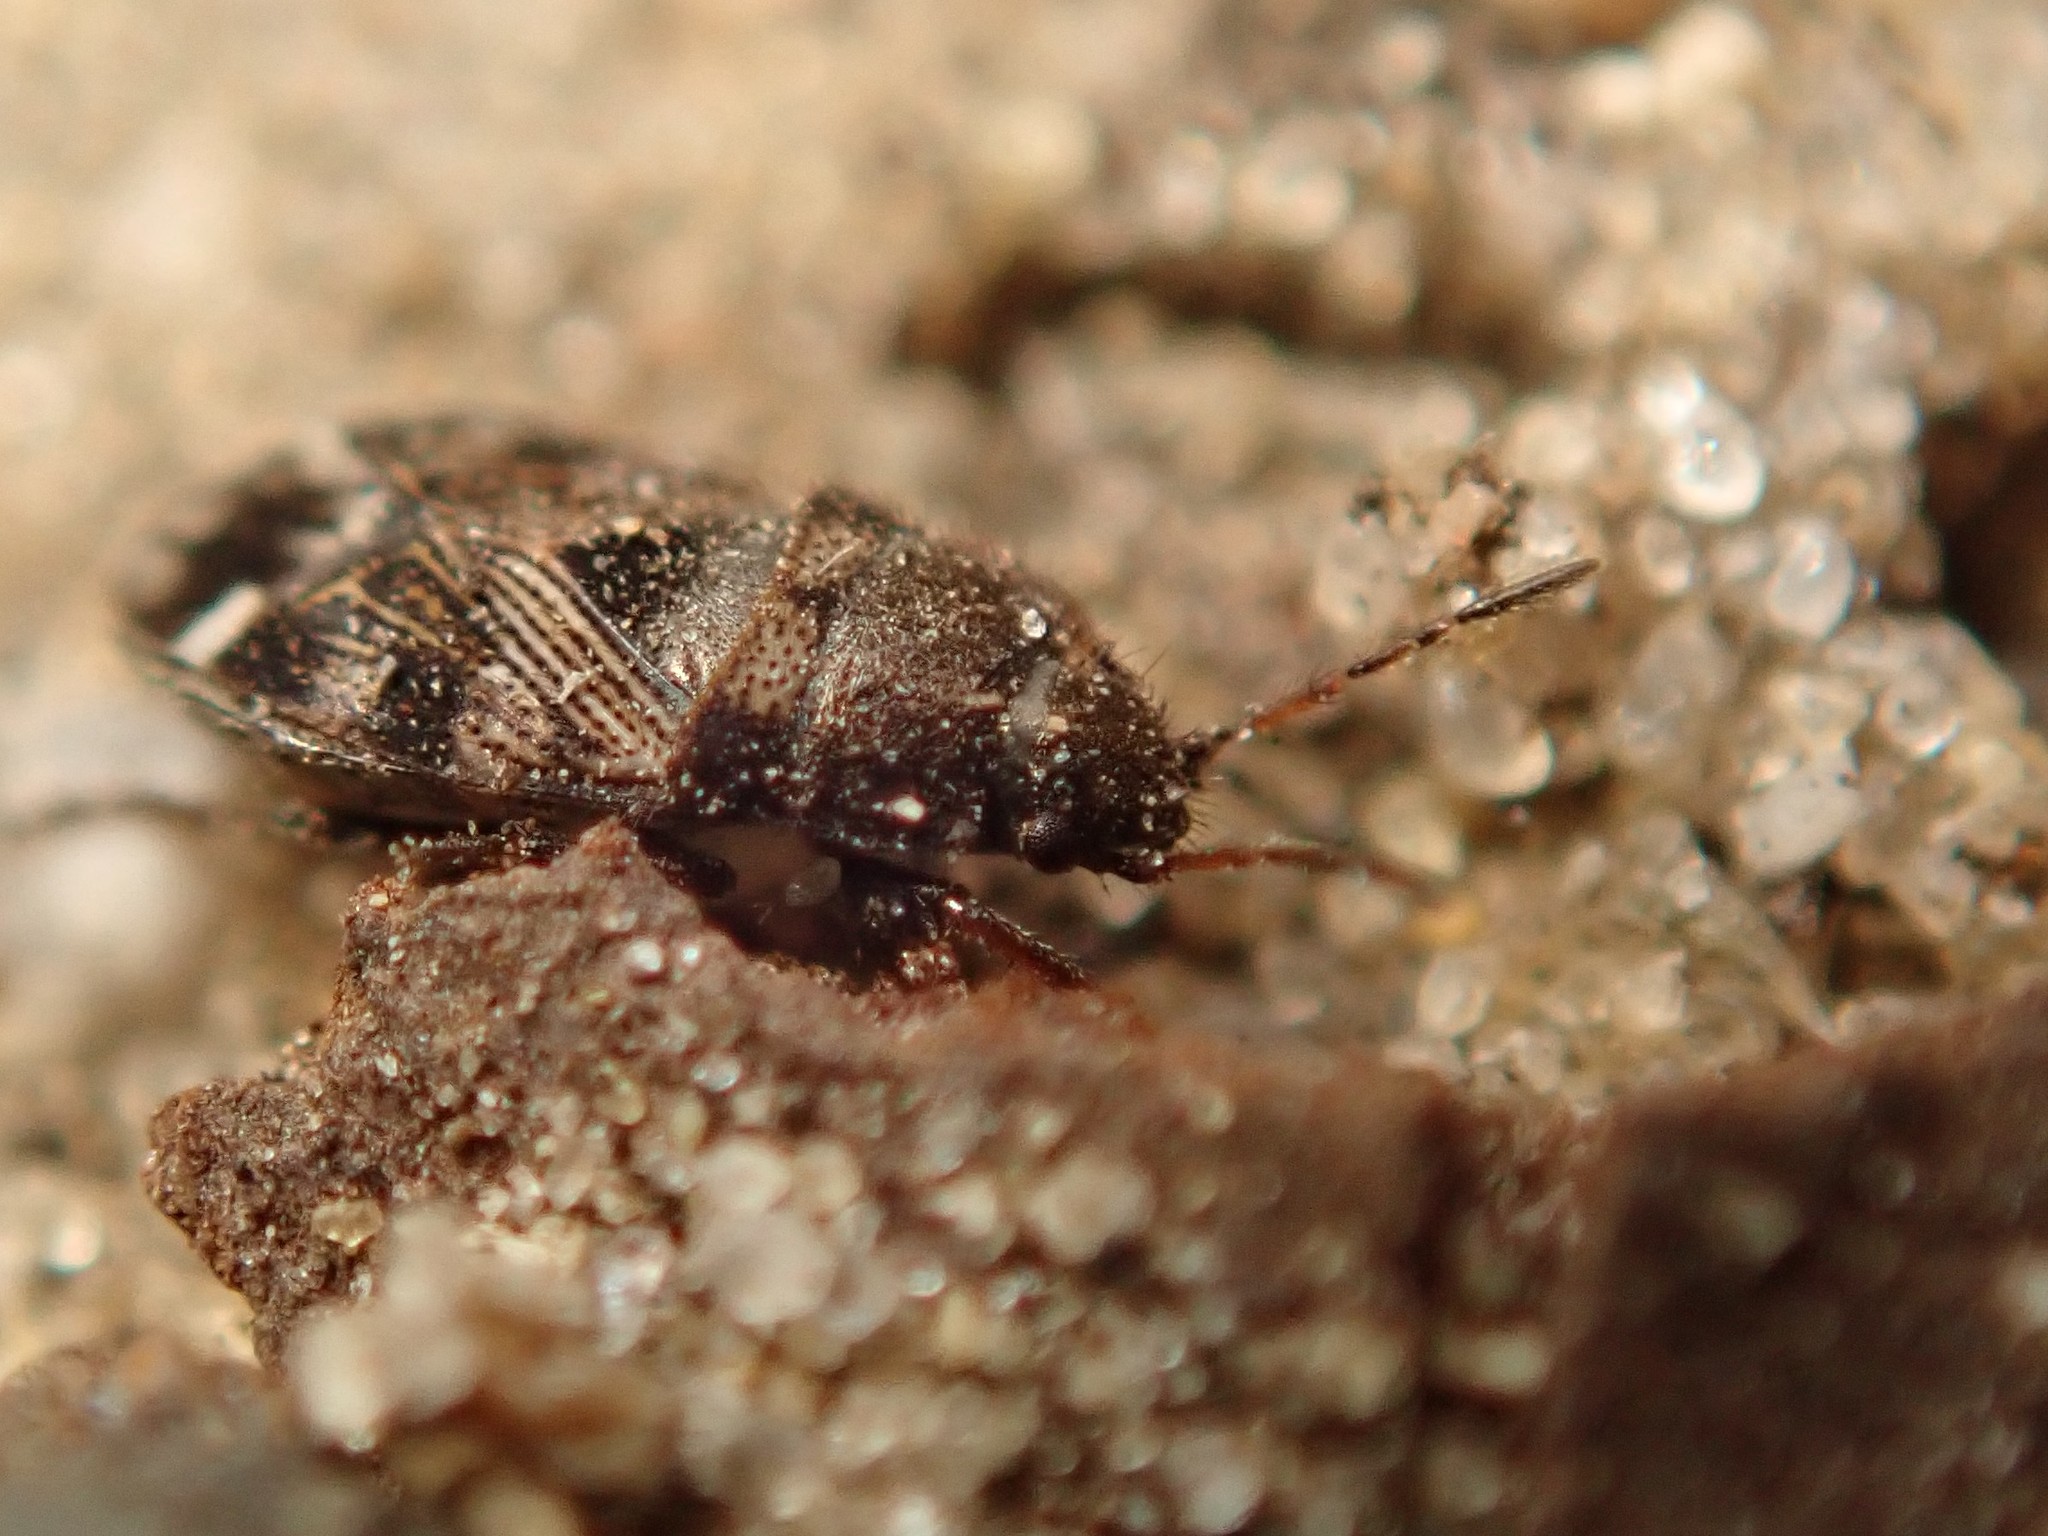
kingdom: Animalia
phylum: Arthropoda
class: Insecta
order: Hemiptera
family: Rhyparochromidae
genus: Pionosomus
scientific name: Pionosomus varius
